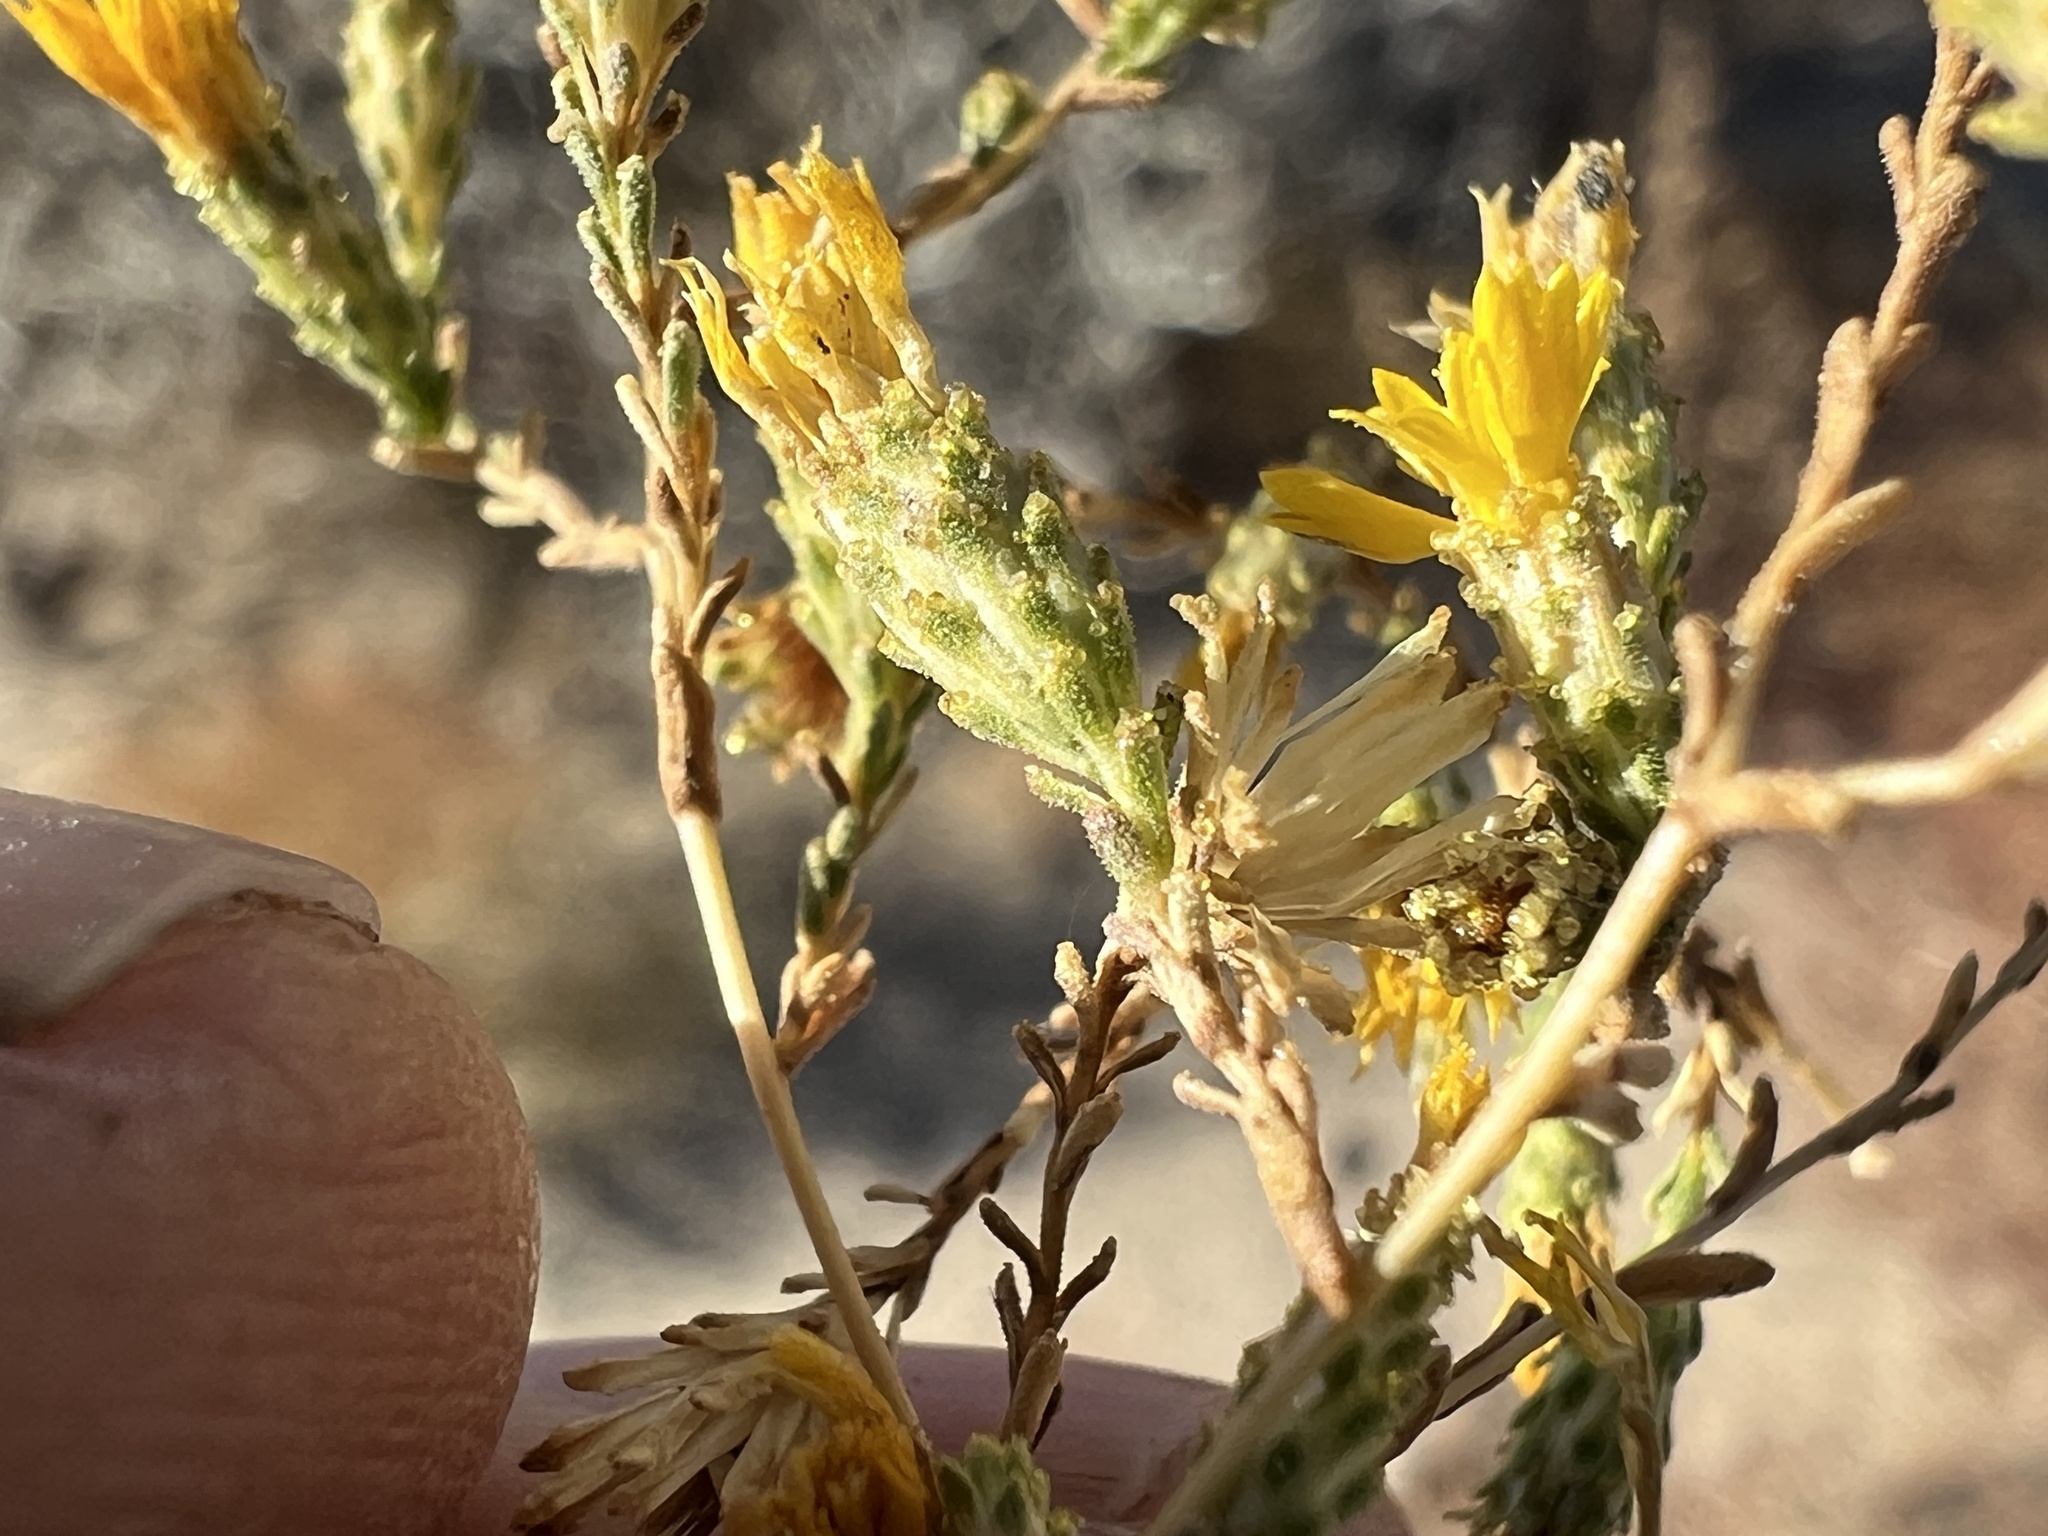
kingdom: Plantae
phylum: Tracheophyta
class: Magnoliopsida
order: Asterales
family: Asteraceae
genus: Lessingia
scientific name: Lessingia glandulifera
